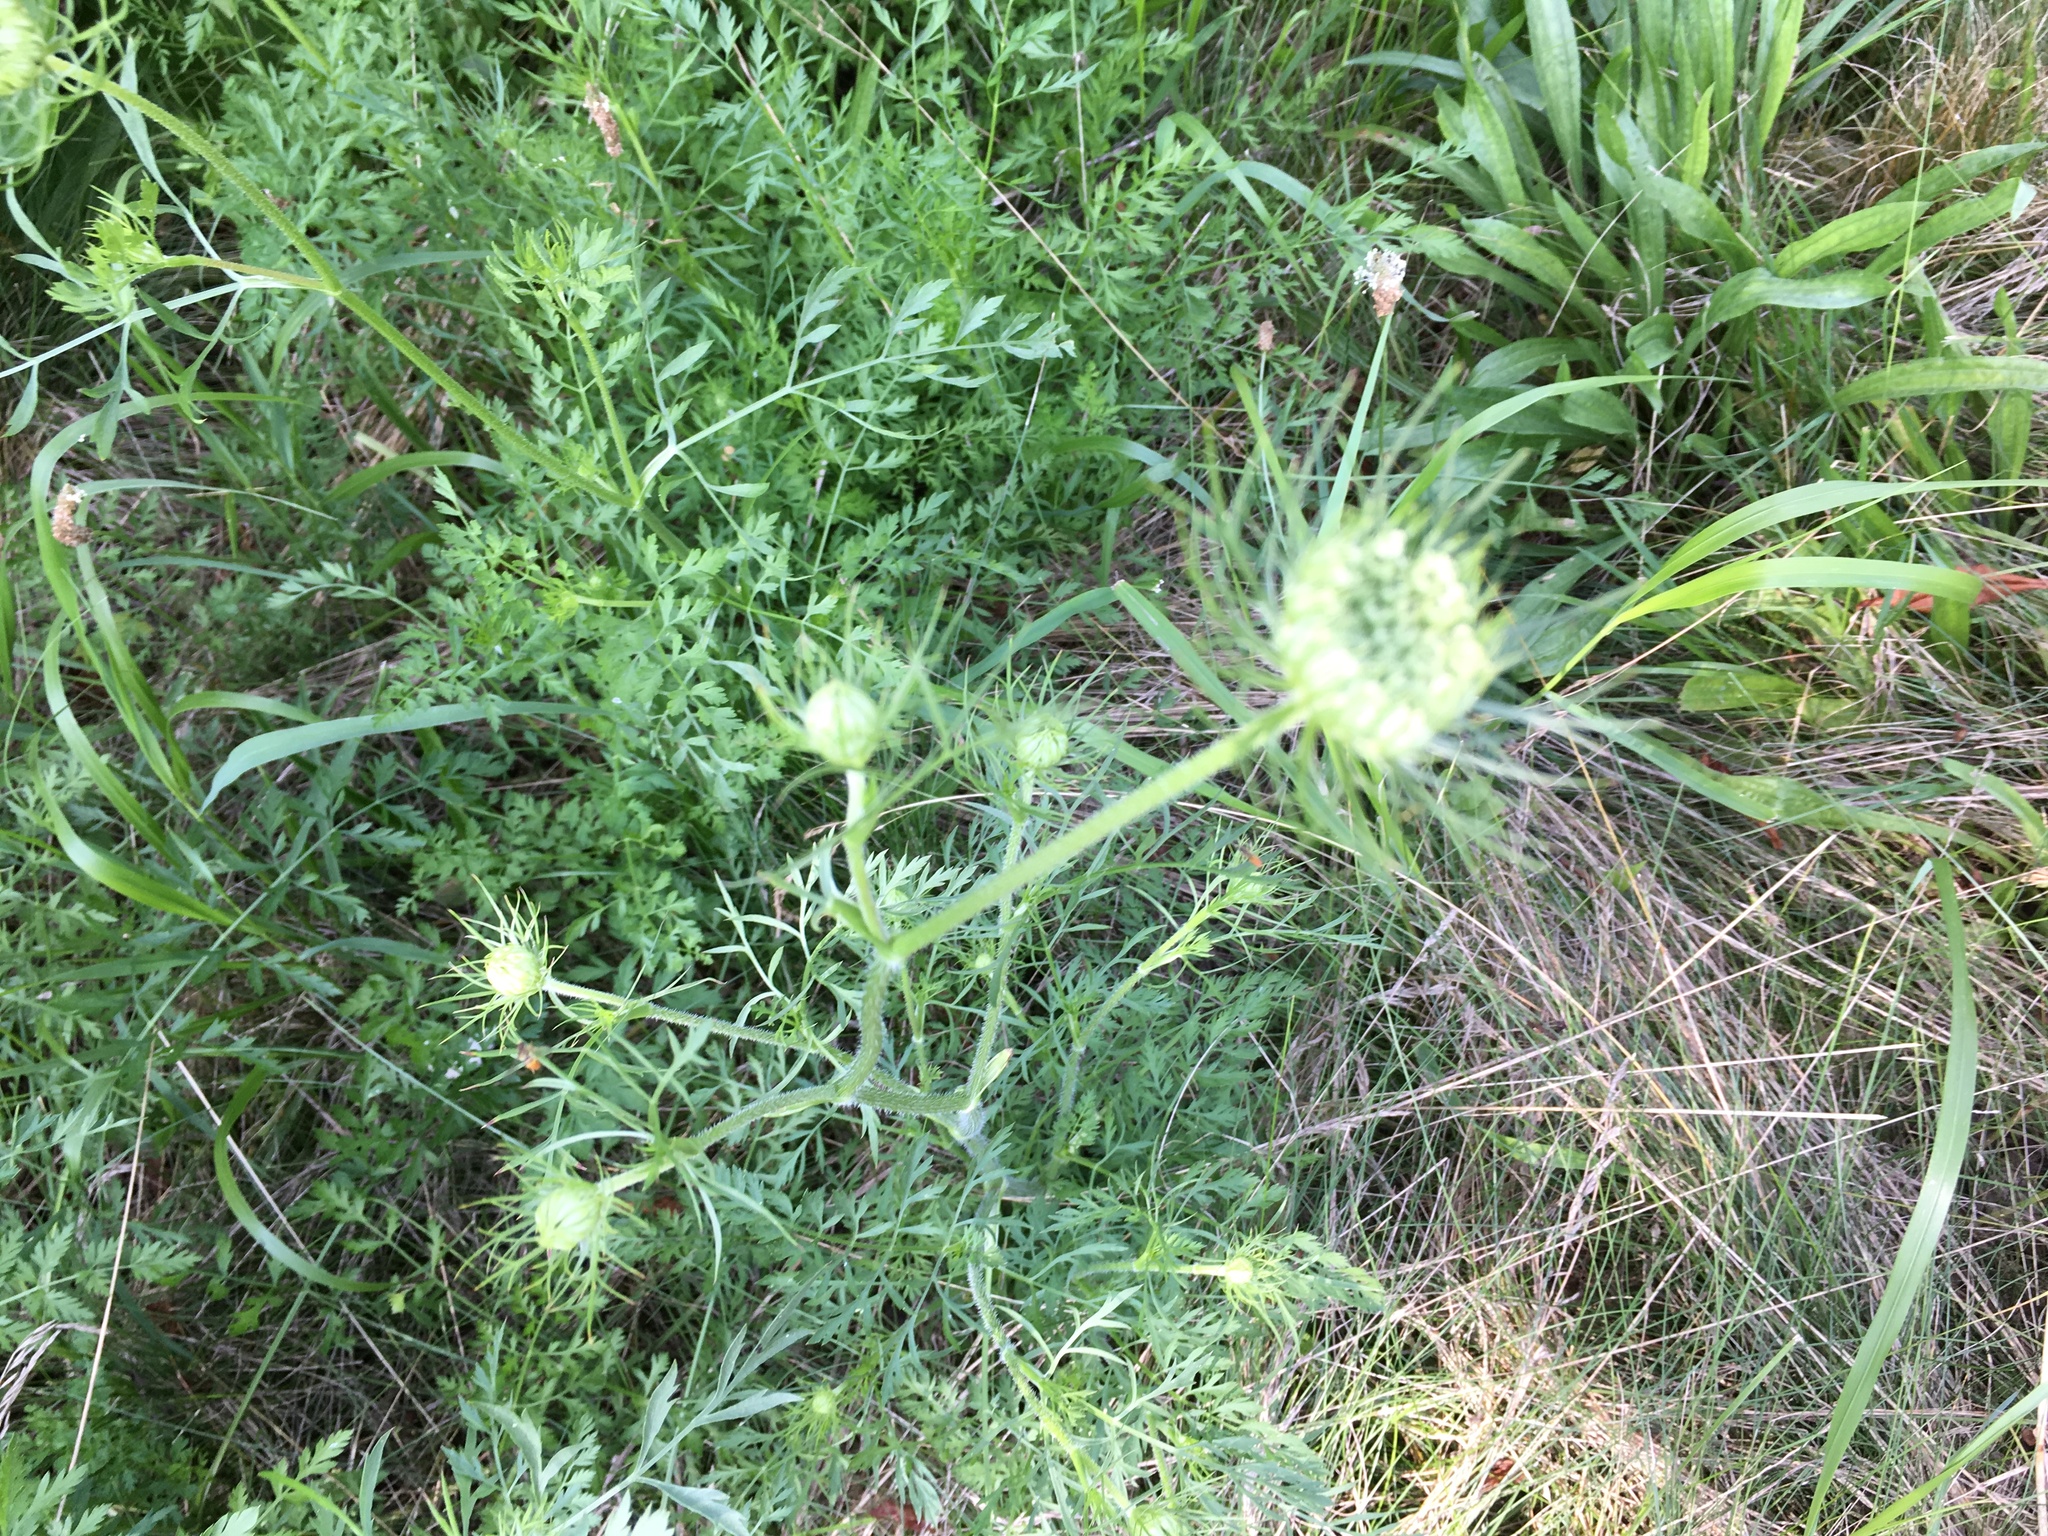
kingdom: Plantae
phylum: Tracheophyta
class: Magnoliopsida
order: Apiales
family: Apiaceae
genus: Daucus
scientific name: Daucus carota
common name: Wild carrot
